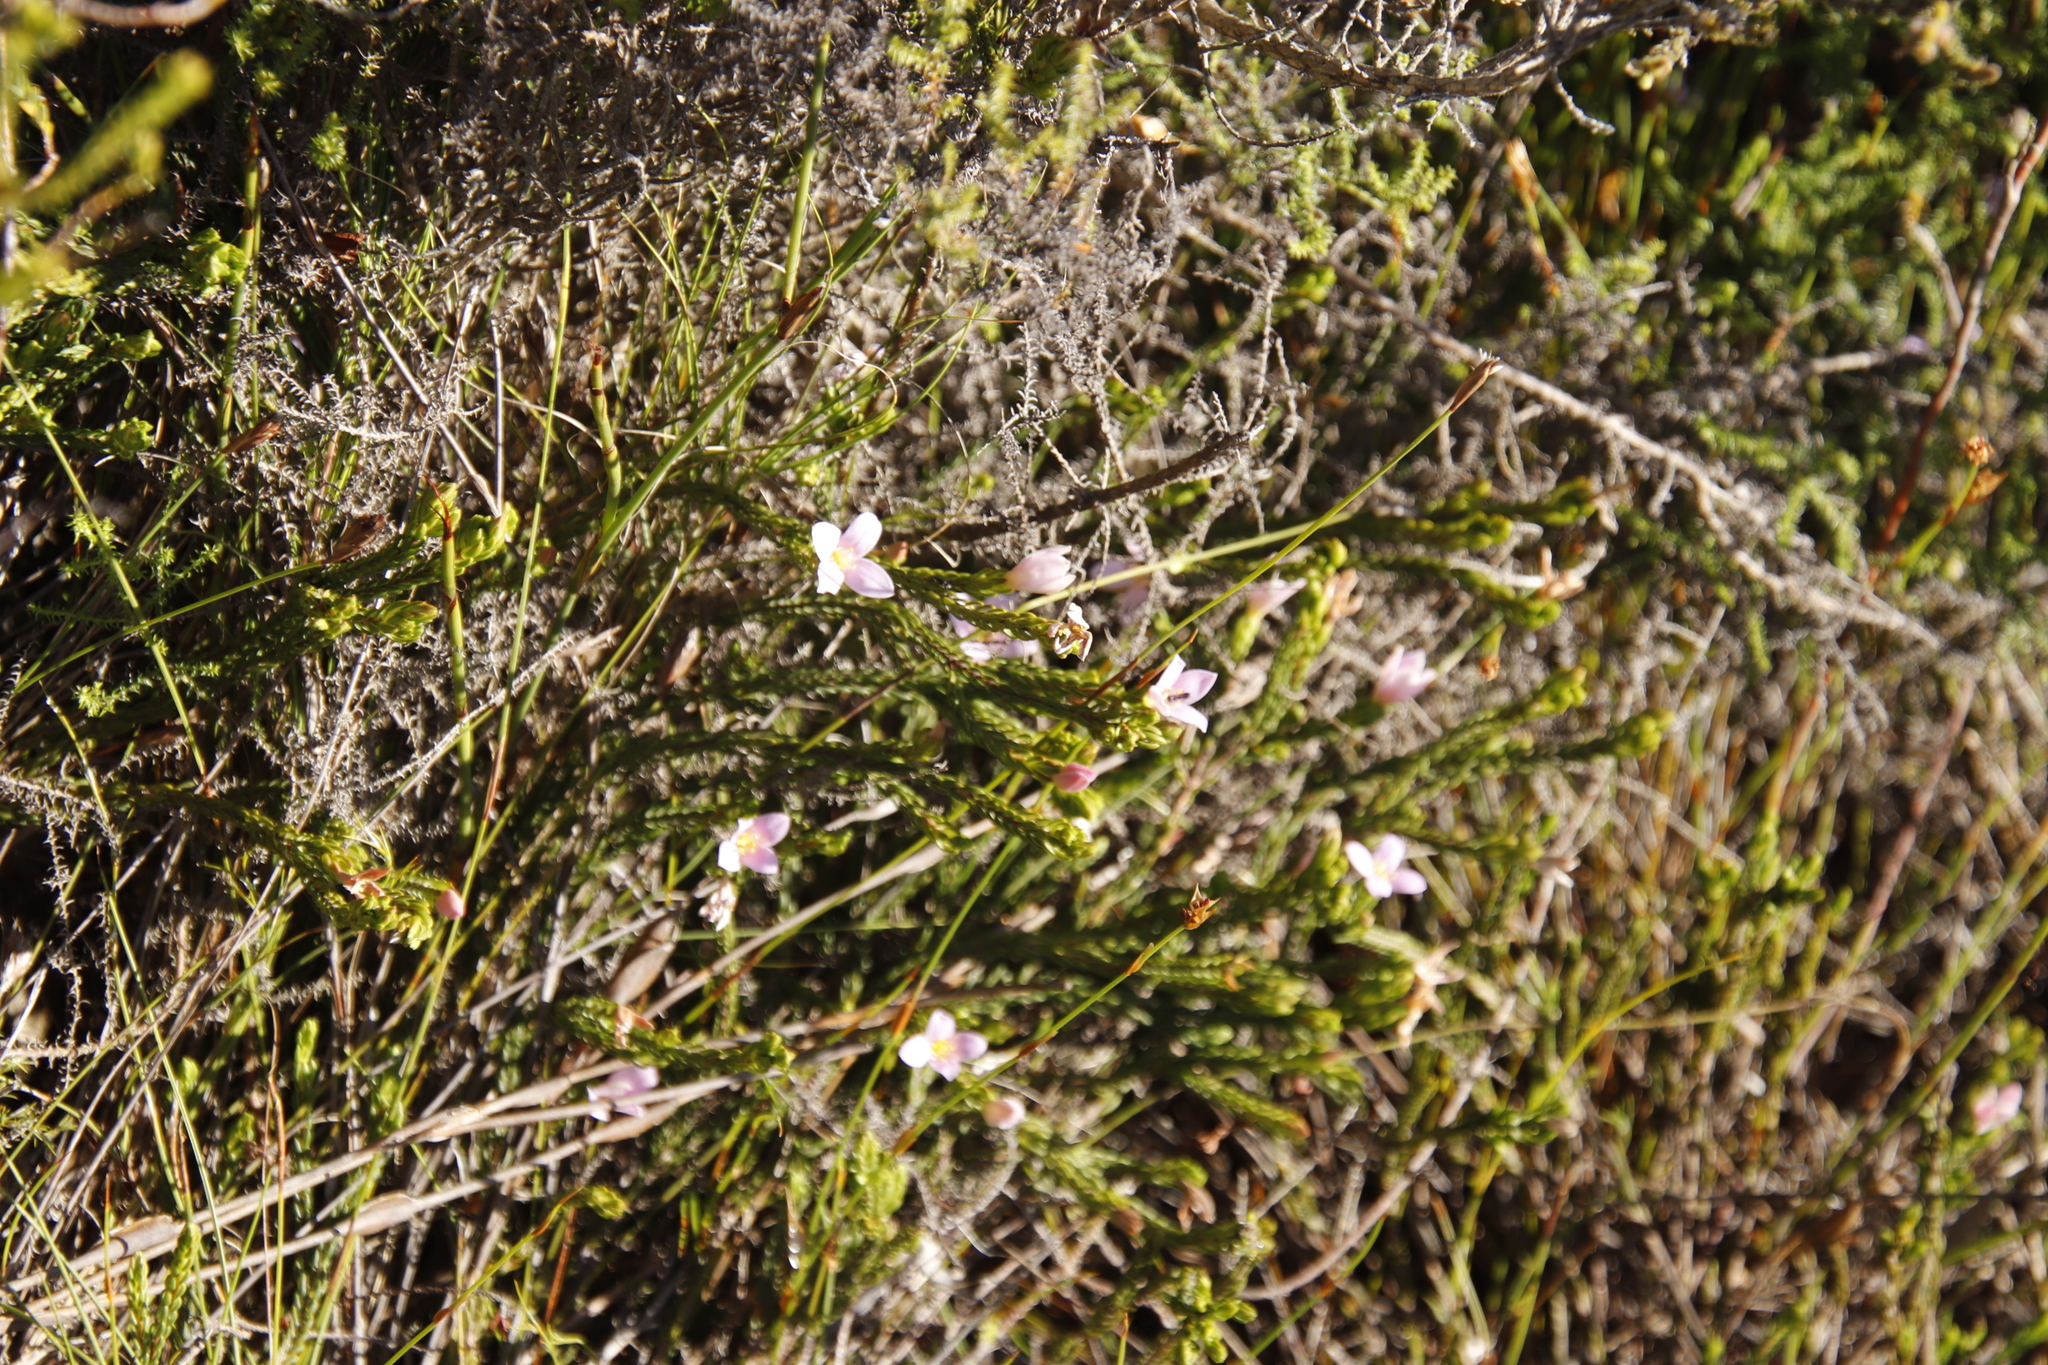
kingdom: Plantae
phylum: Tracheophyta
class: Magnoliopsida
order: Malvales
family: Thymelaeaceae
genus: Lachnaea
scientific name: Lachnaea grandiflora
